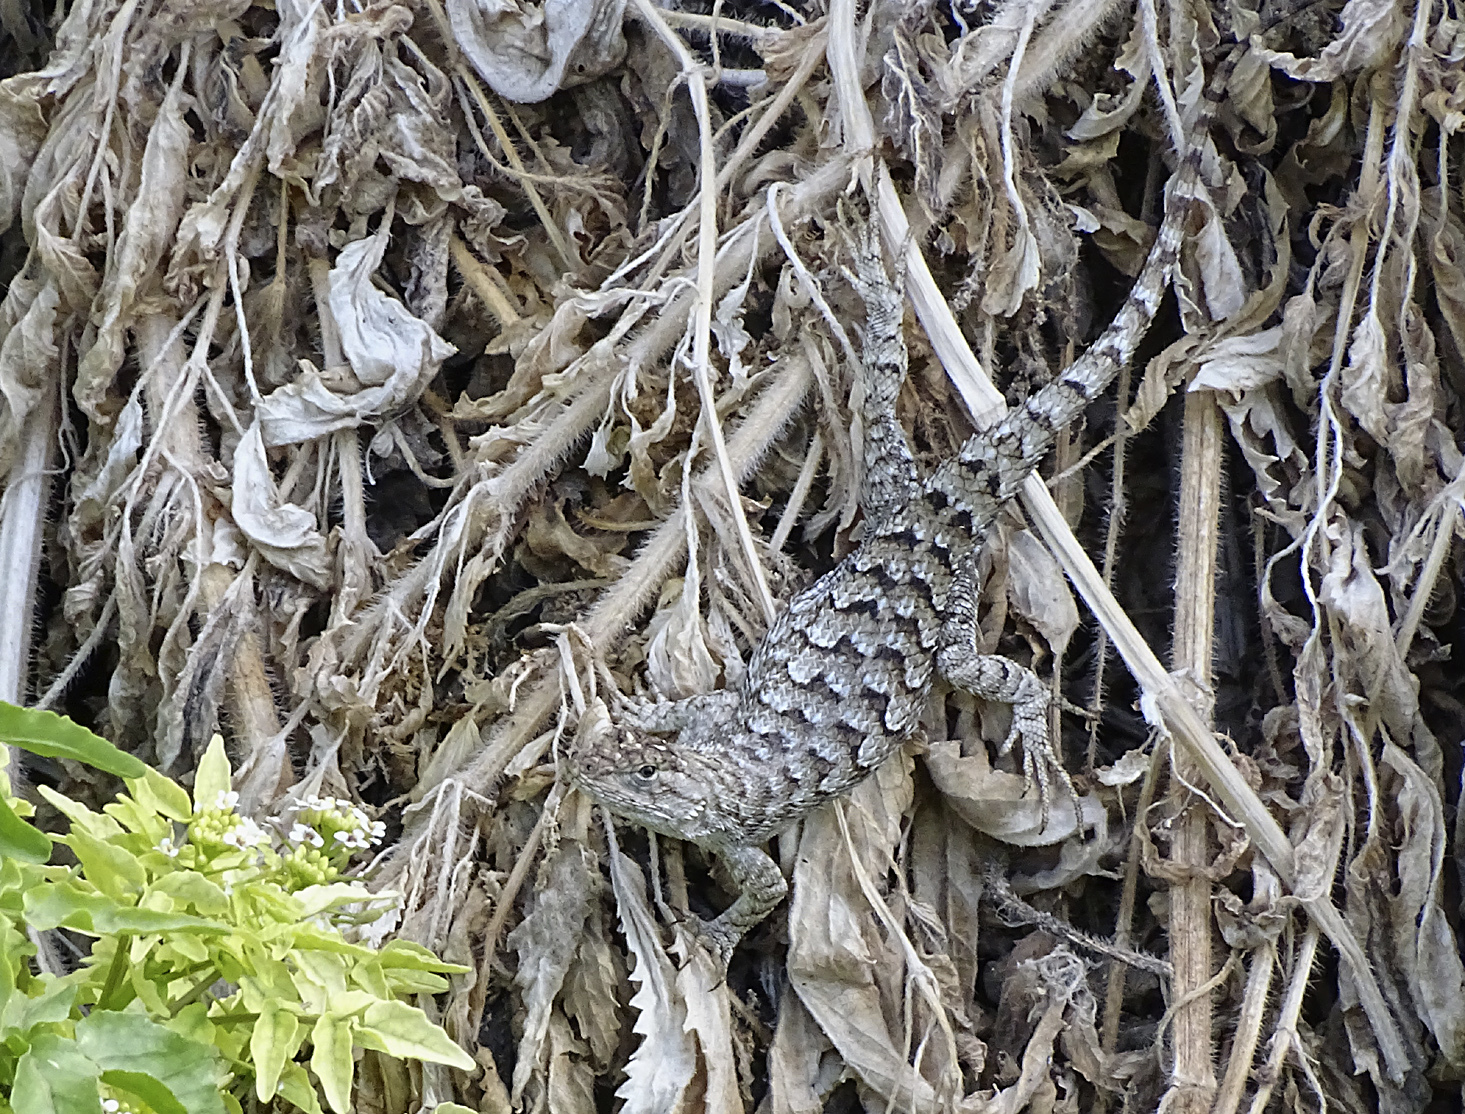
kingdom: Animalia
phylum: Chordata
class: Squamata
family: Phrynosomatidae
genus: Sceloporus
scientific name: Sceloporus occidentalis
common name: Western fence lizard
